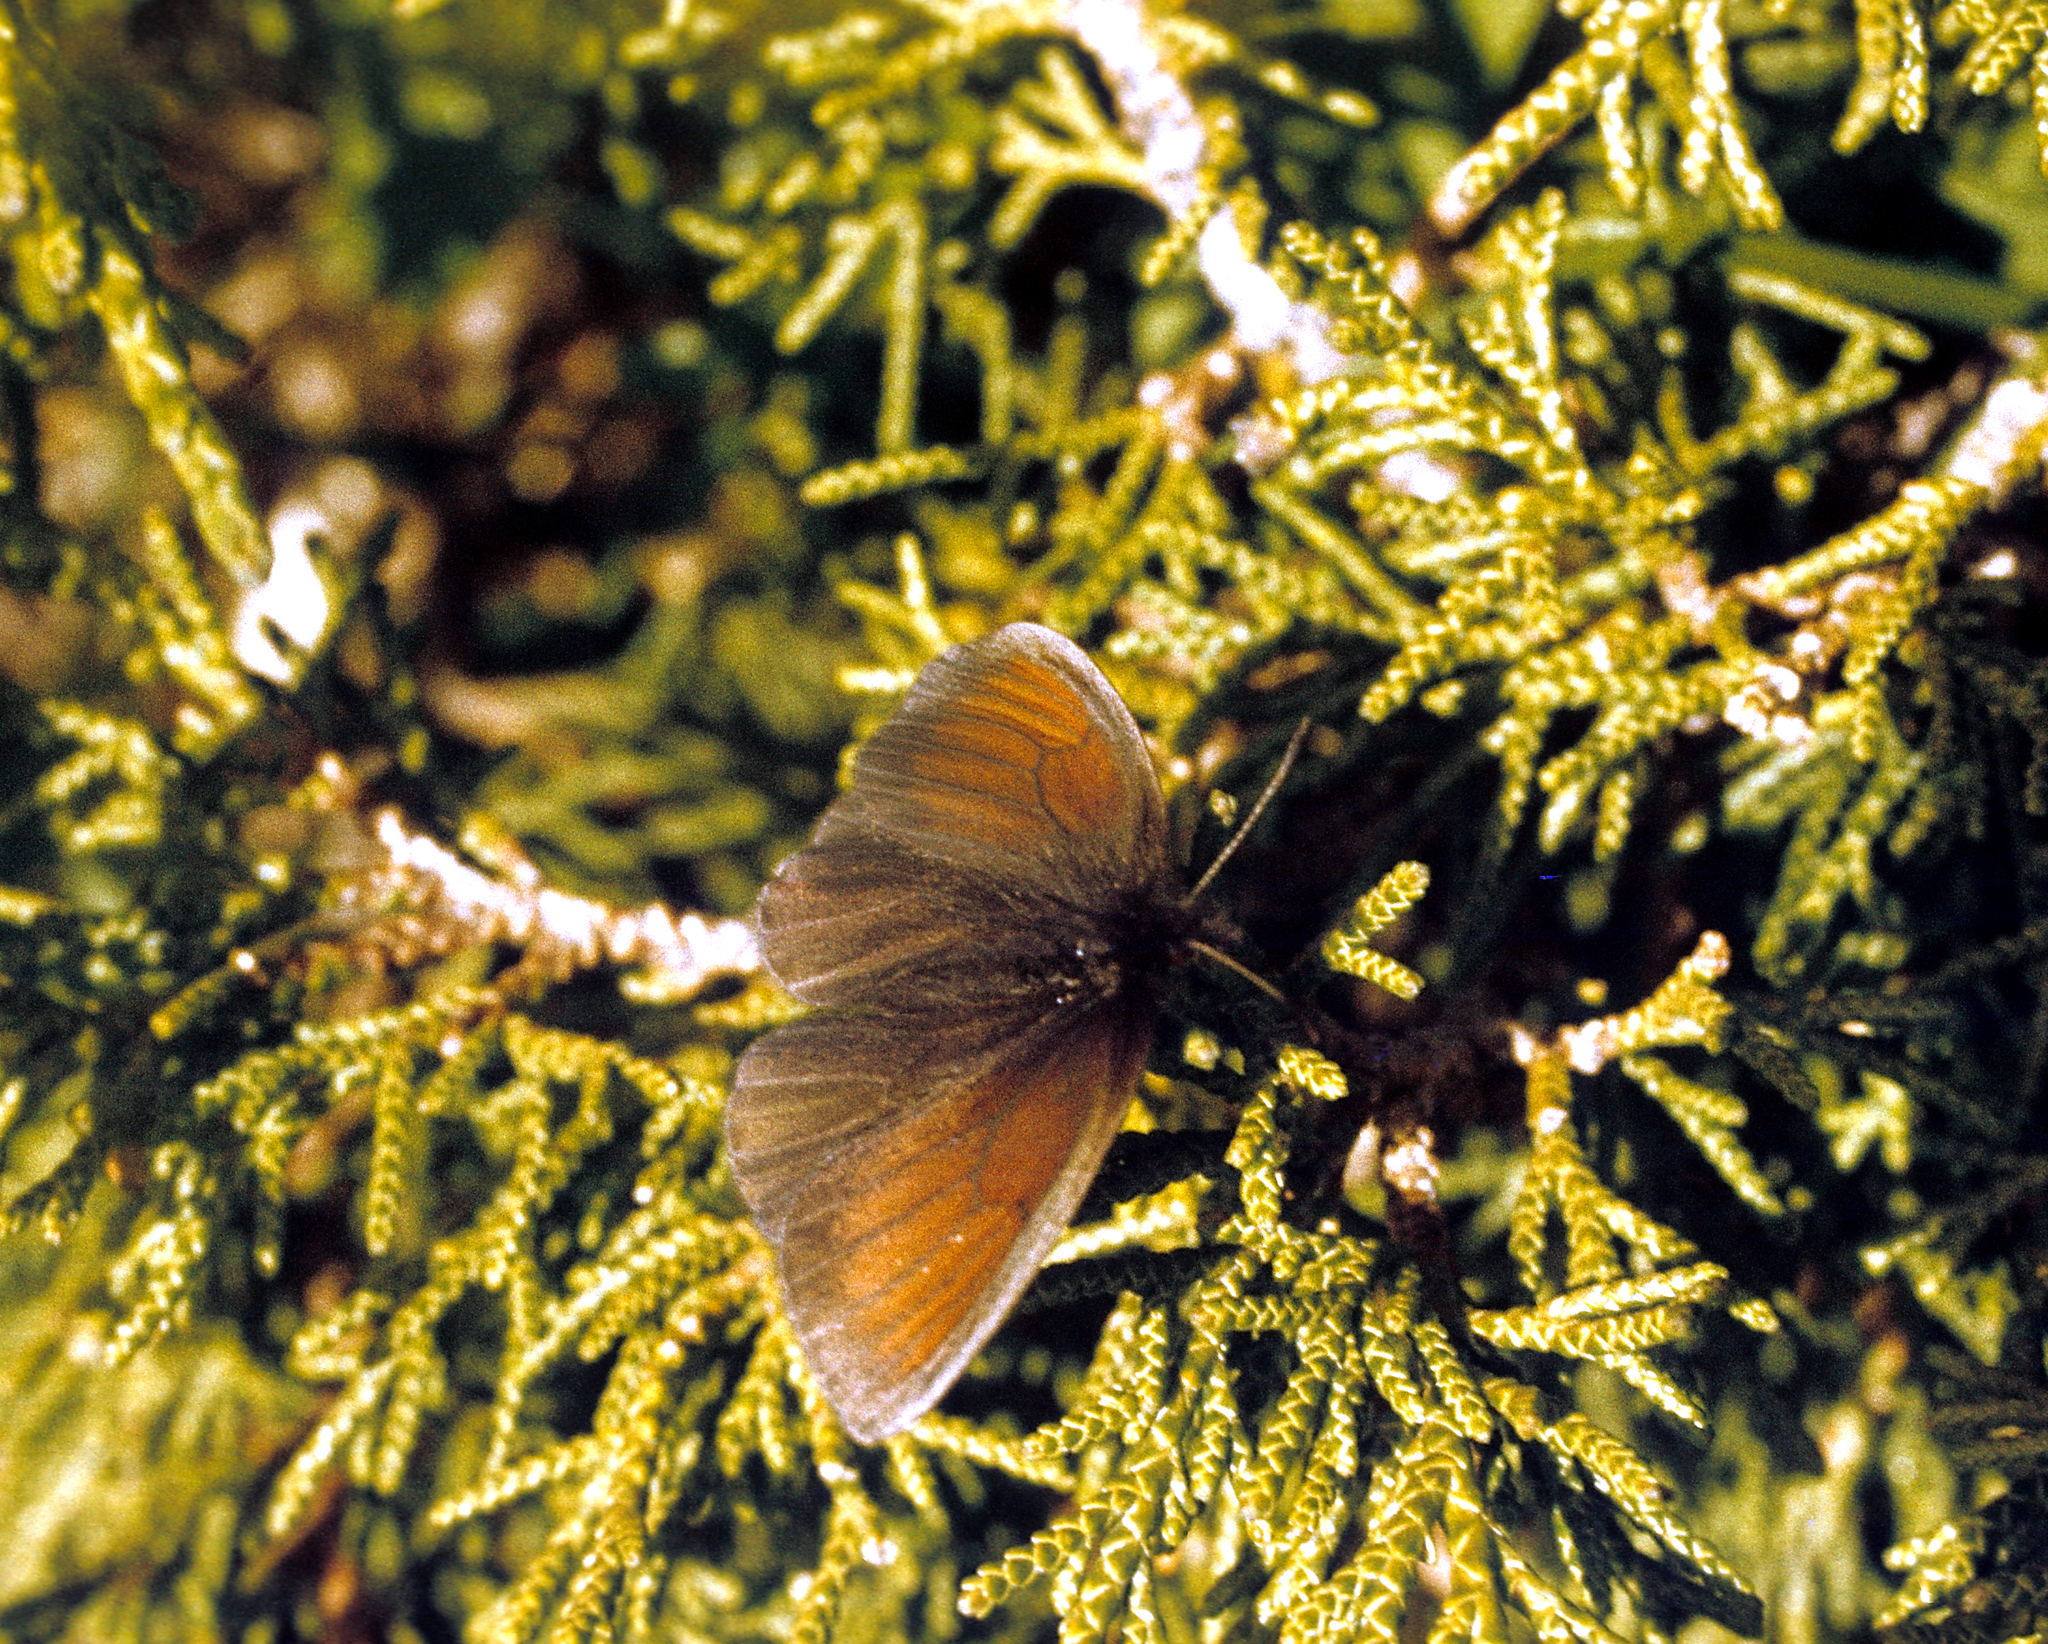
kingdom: Animalia
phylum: Arthropoda
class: Insecta
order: Lepidoptera
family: Nymphalidae
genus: Erebia
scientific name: Erebia ocnus
